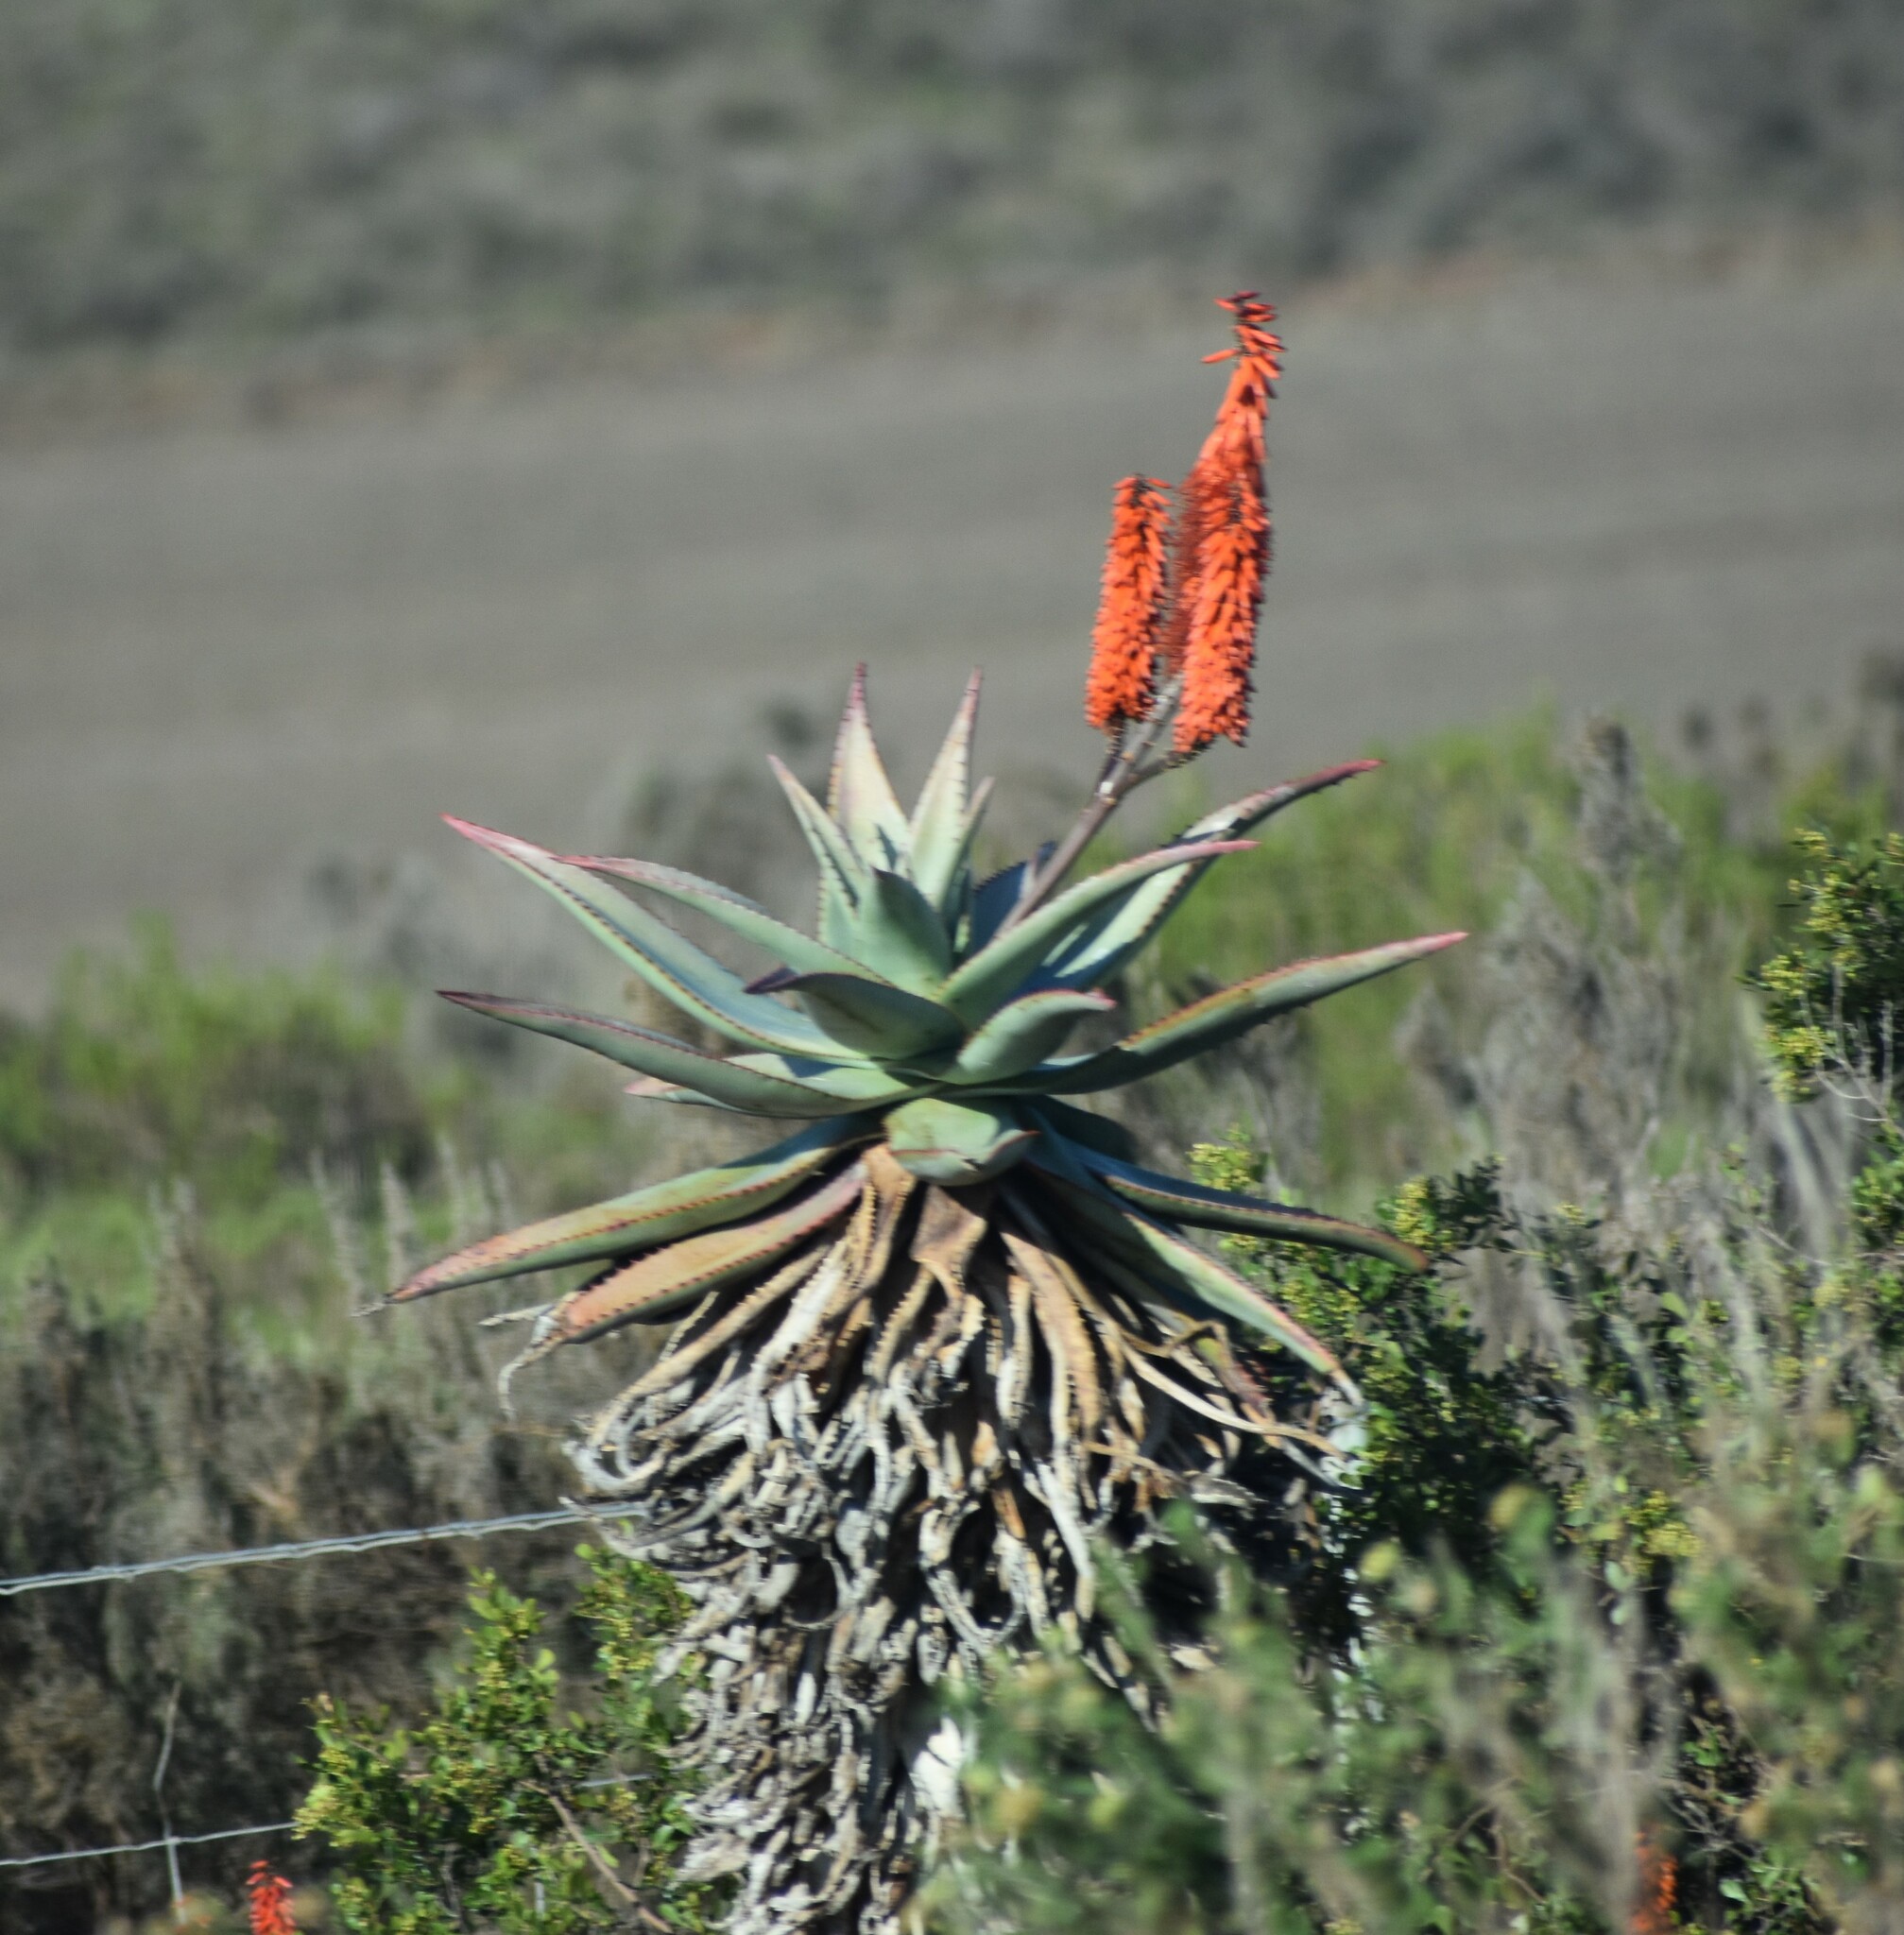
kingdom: Plantae
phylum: Tracheophyta
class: Liliopsida
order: Asparagales
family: Asphodelaceae
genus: Aloe
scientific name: Aloe ferox
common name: Bitter aloe
